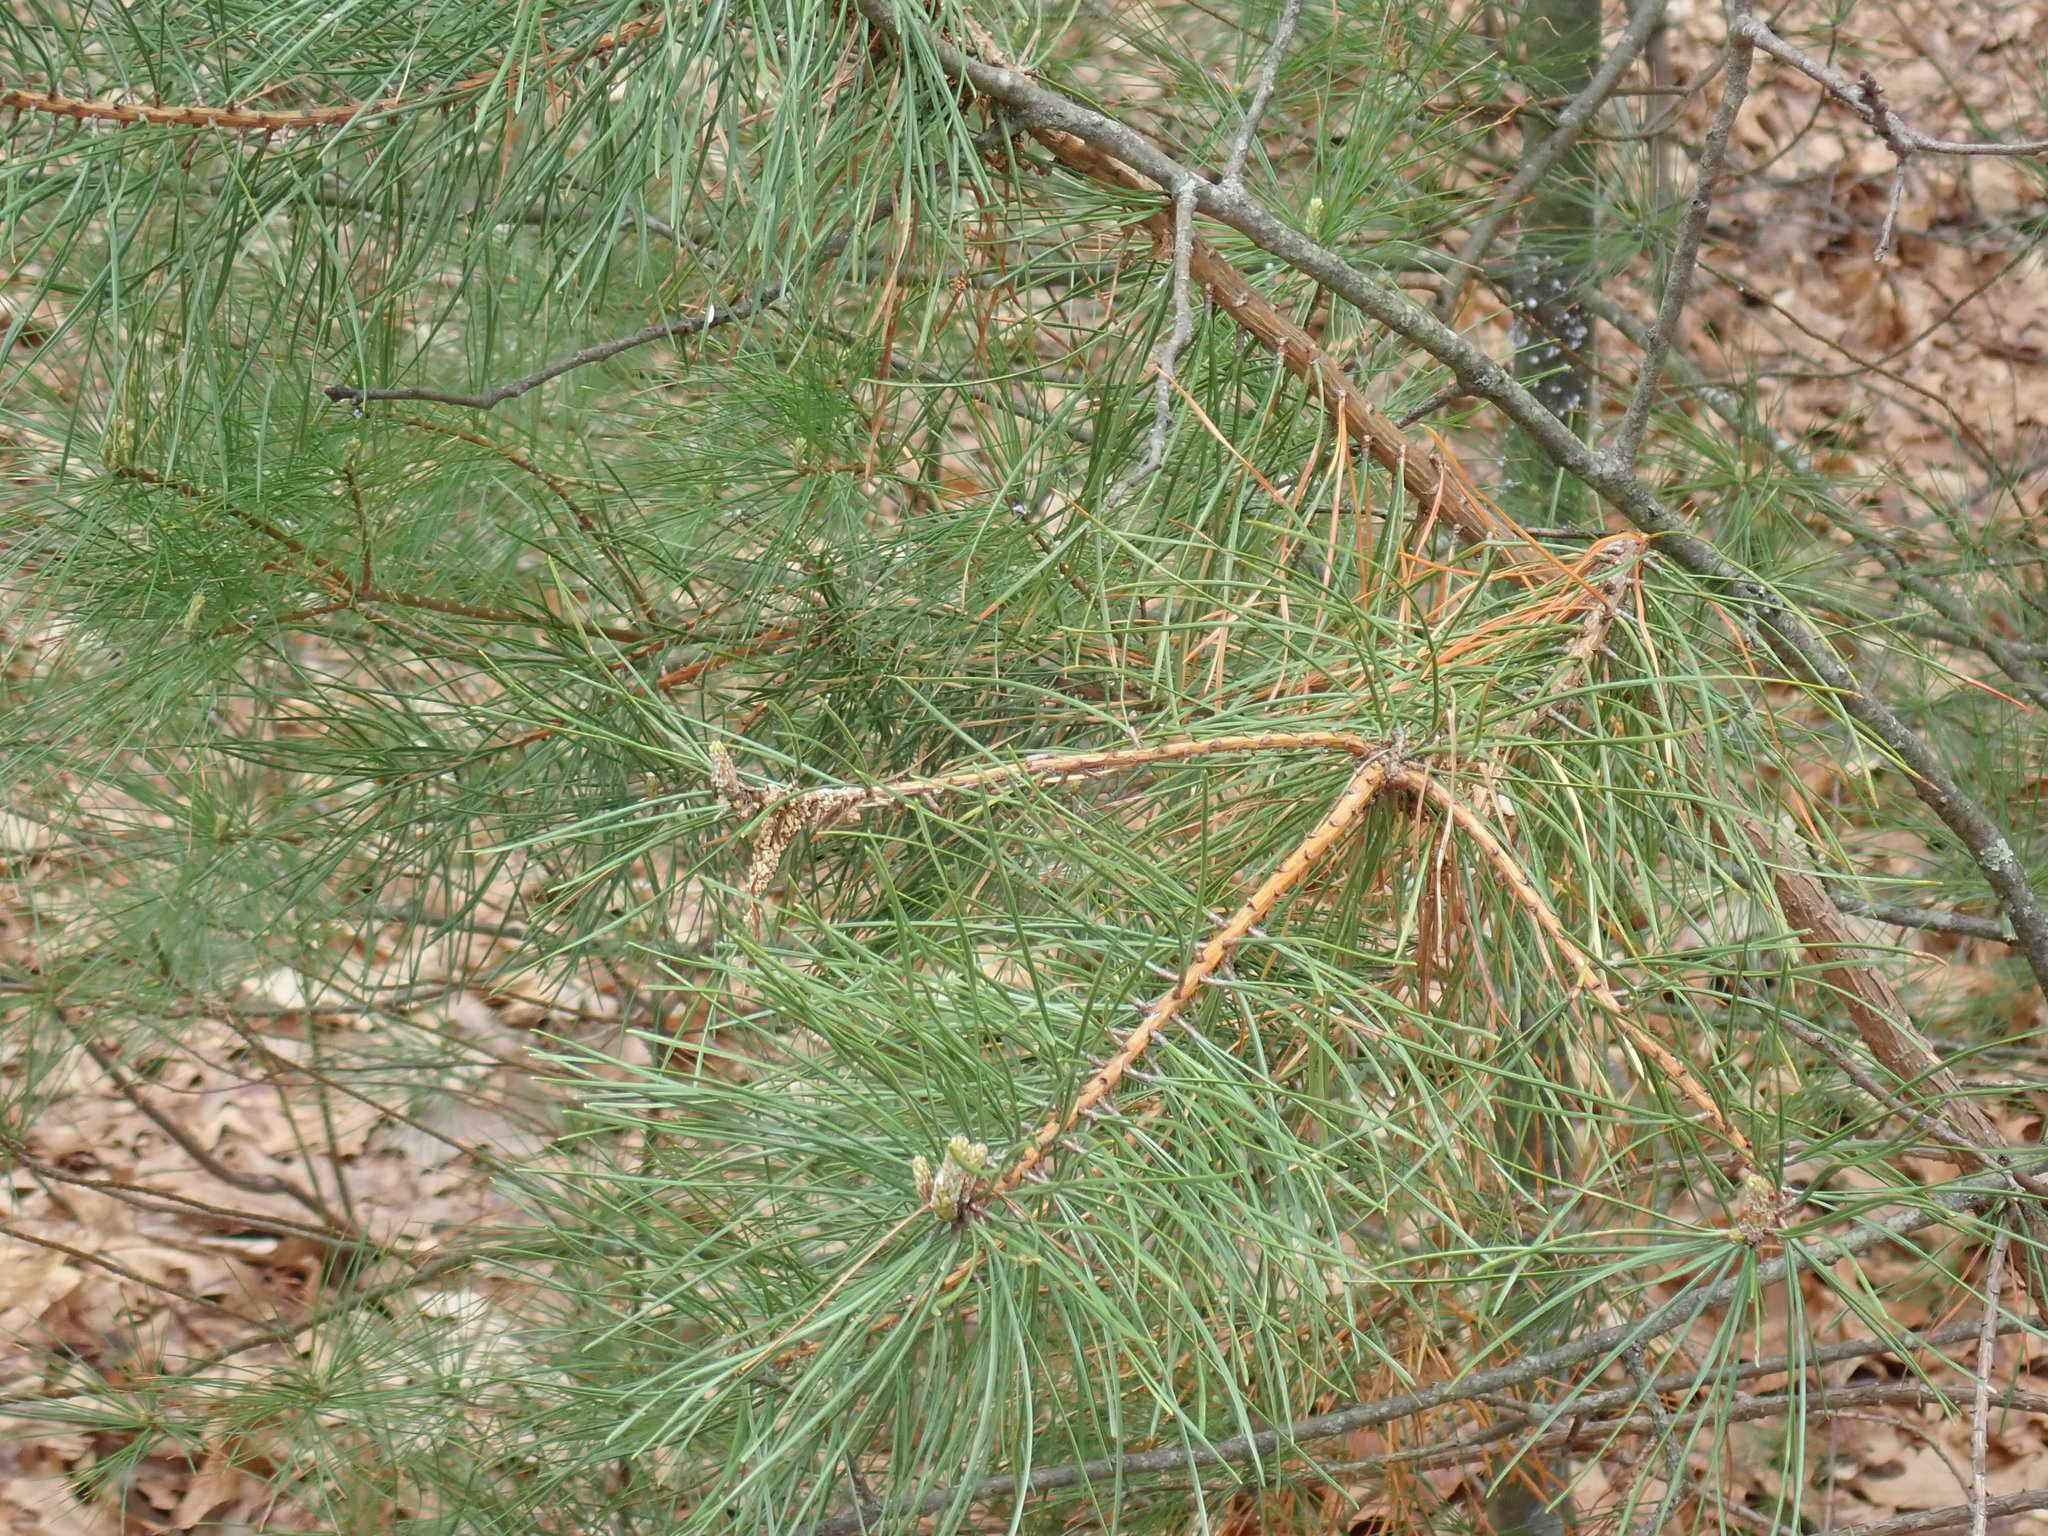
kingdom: Plantae
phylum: Tracheophyta
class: Pinopsida
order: Pinales
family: Pinaceae
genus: Pinus
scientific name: Pinus rigida
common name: Pitch pine
